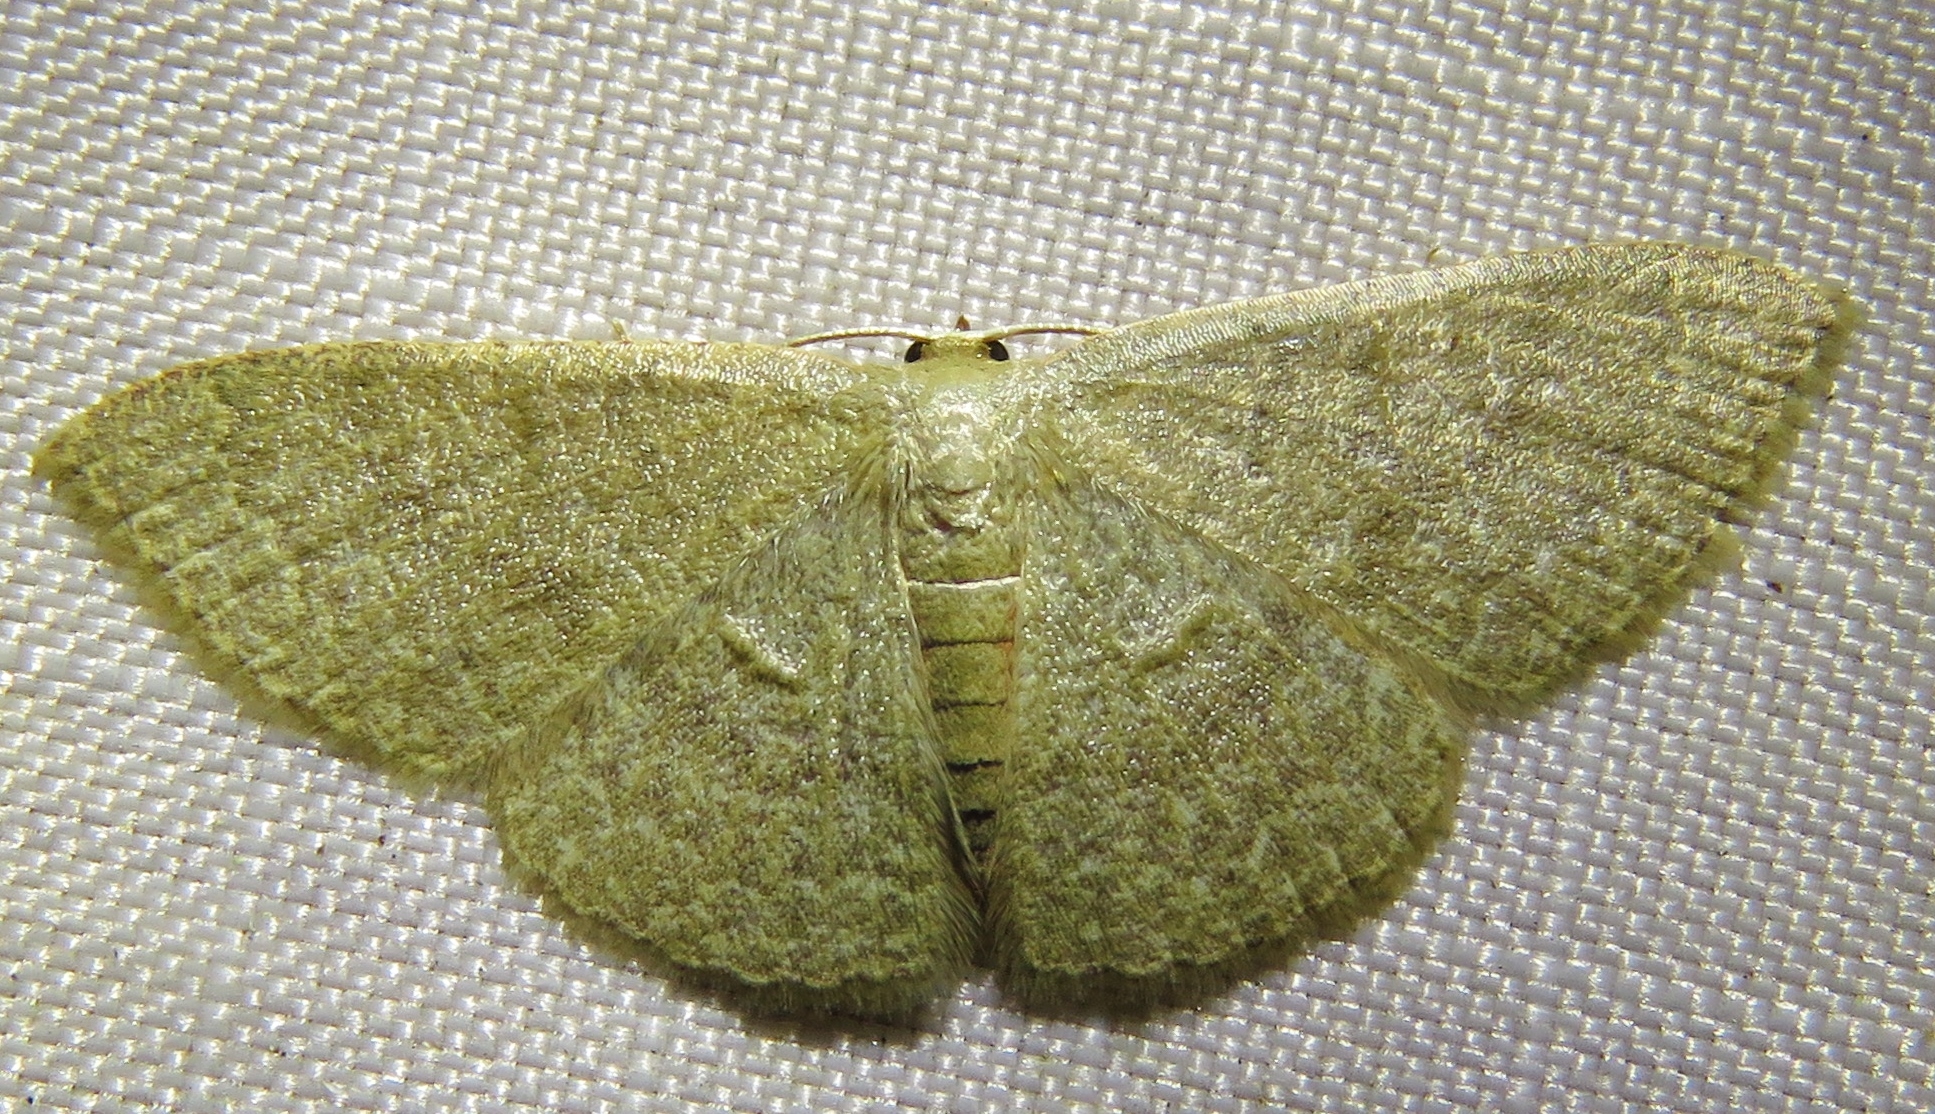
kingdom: Animalia
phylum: Arthropoda
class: Insecta
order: Lepidoptera
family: Geometridae
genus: Pleuroprucha
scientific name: Pleuroprucha insulsaria
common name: Common tan wave
